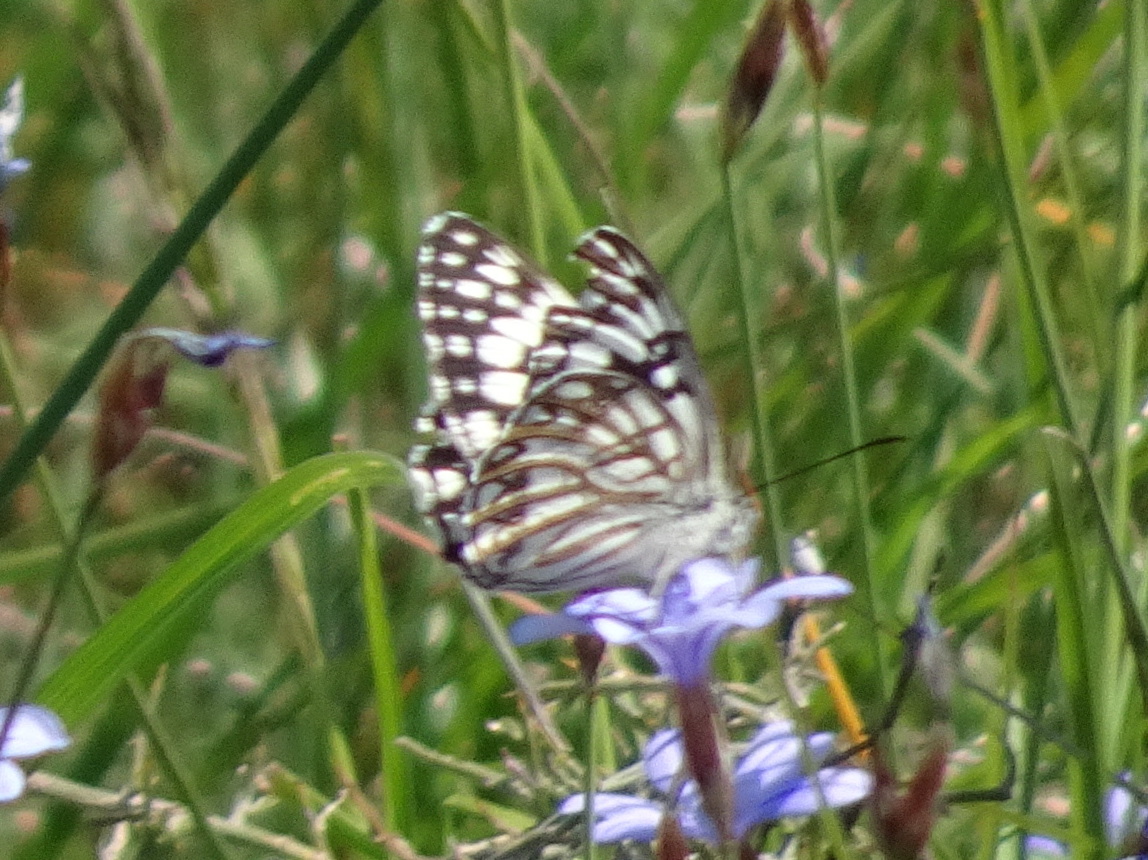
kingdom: Animalia
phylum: Arthropoda
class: Insecta
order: Lepidoptera
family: Nymphalidae
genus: Melanargia
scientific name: Melanargia occitanica
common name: Western marbled white
